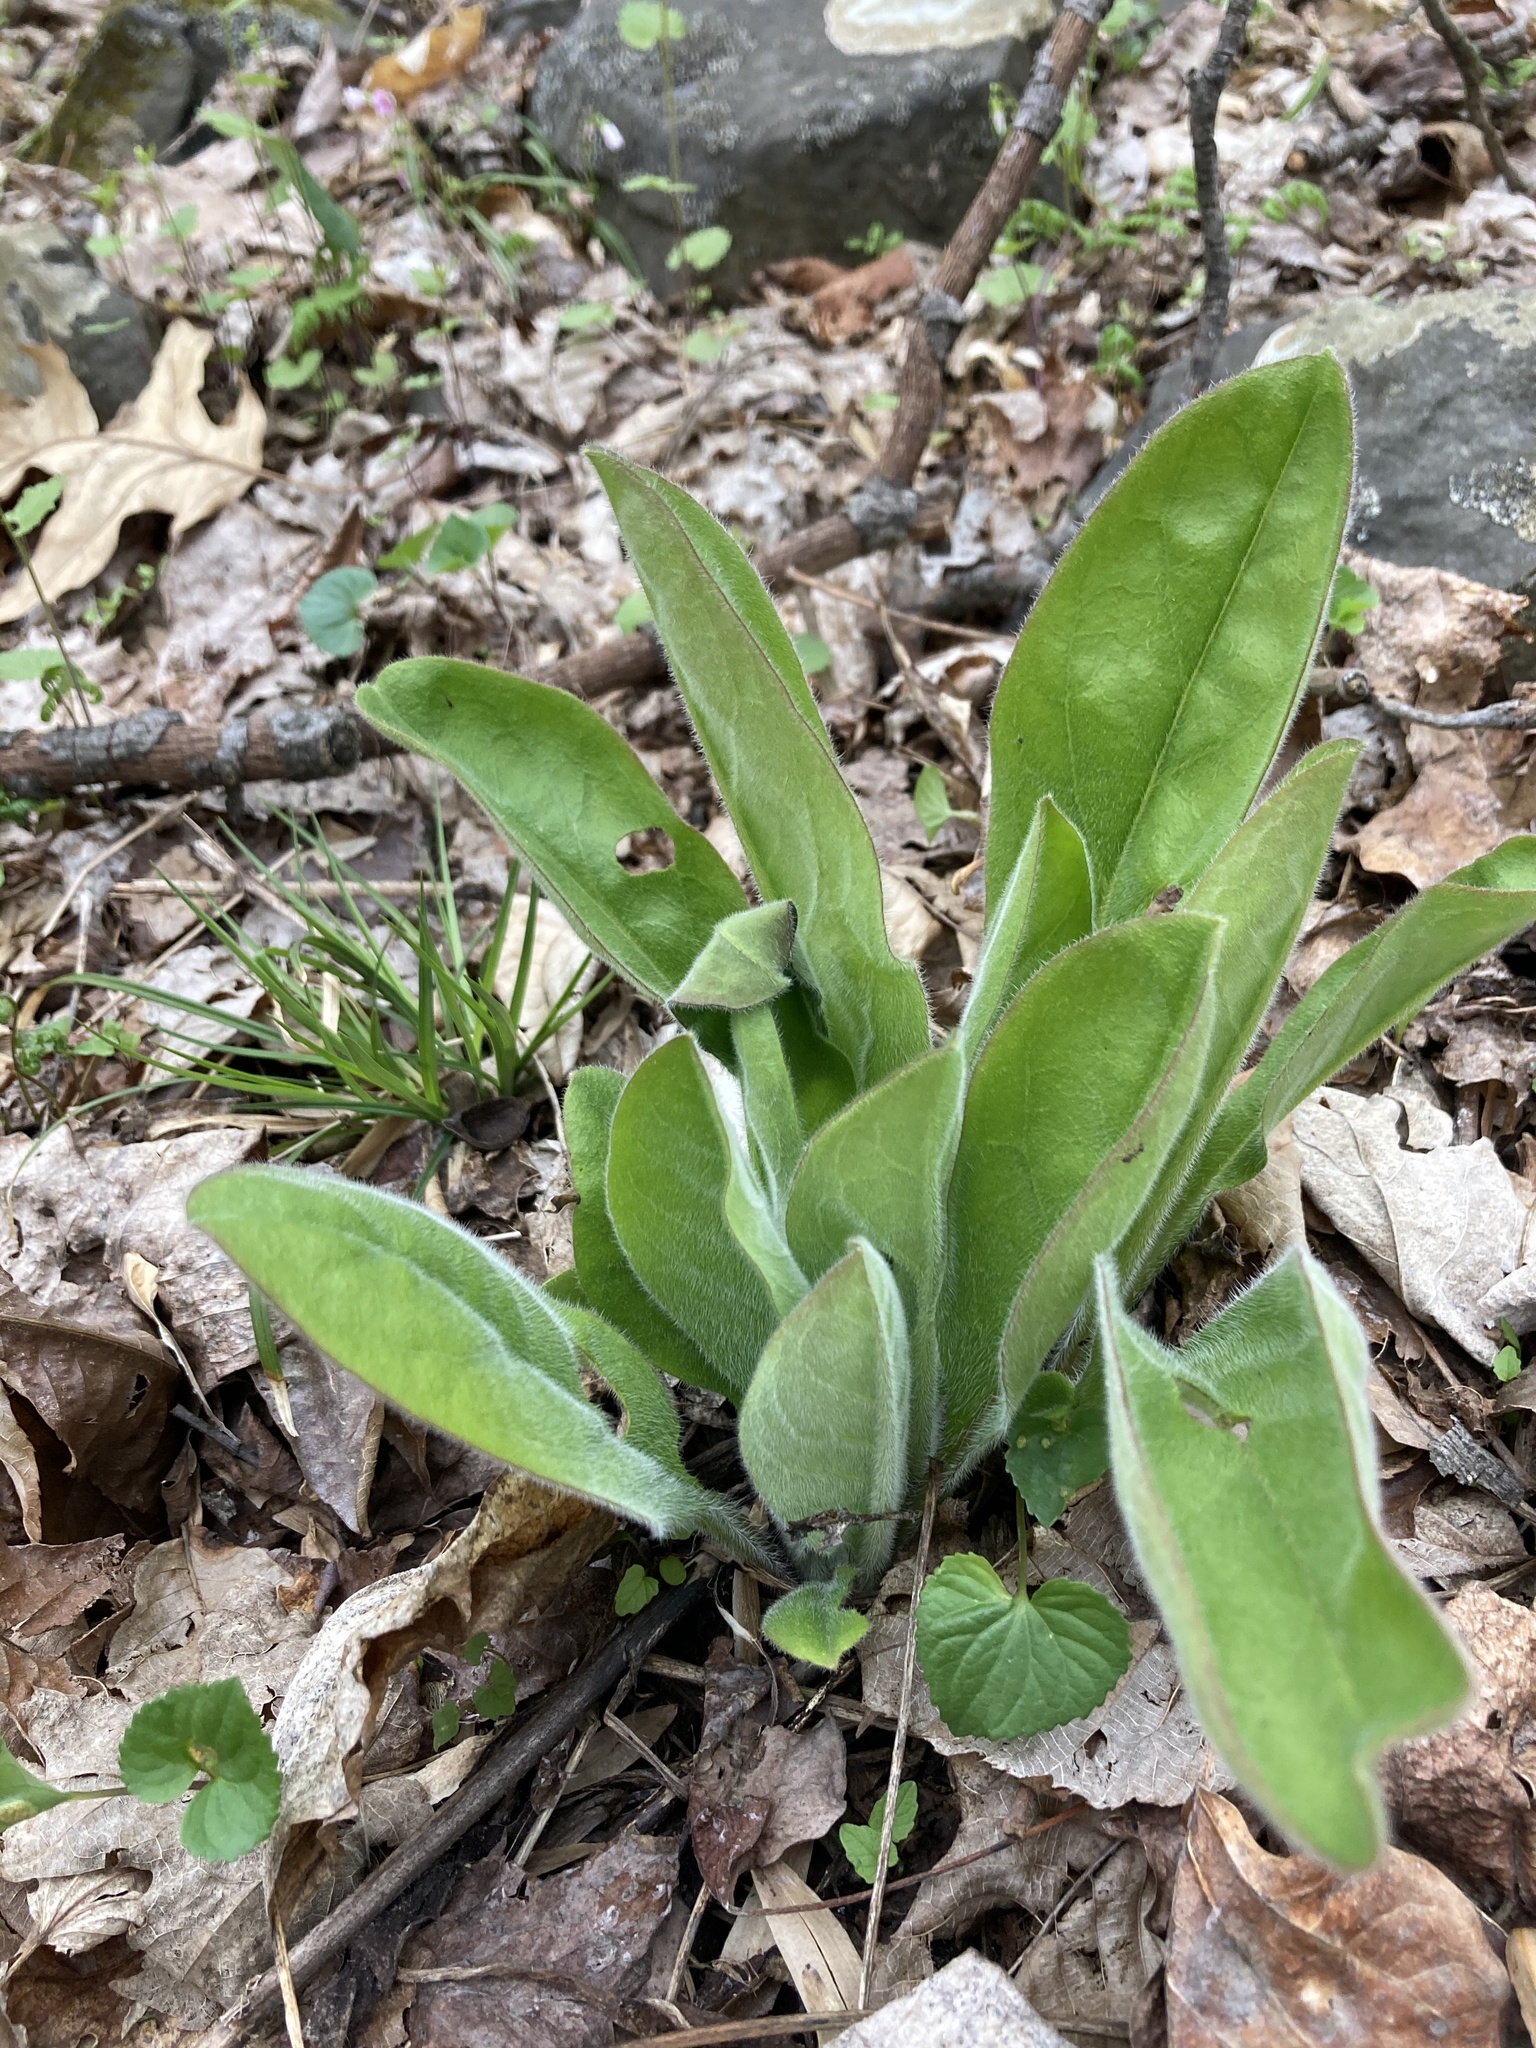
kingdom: Plantae
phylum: Tracheophyta
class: Magnoliopsida
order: Boraginales
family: Boraginaceae
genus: Andersonglossum
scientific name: Andersonglossum virginianum
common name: Wild comfrey
